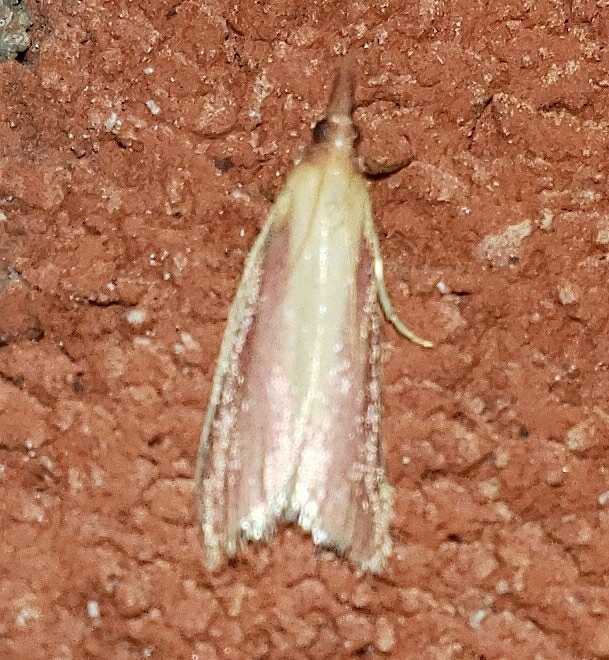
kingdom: Animalia
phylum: Arthropoda
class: Insecta
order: Lepidoptera
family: Pyralidae
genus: Peoria
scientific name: Peoria approximella
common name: Carmine snout
